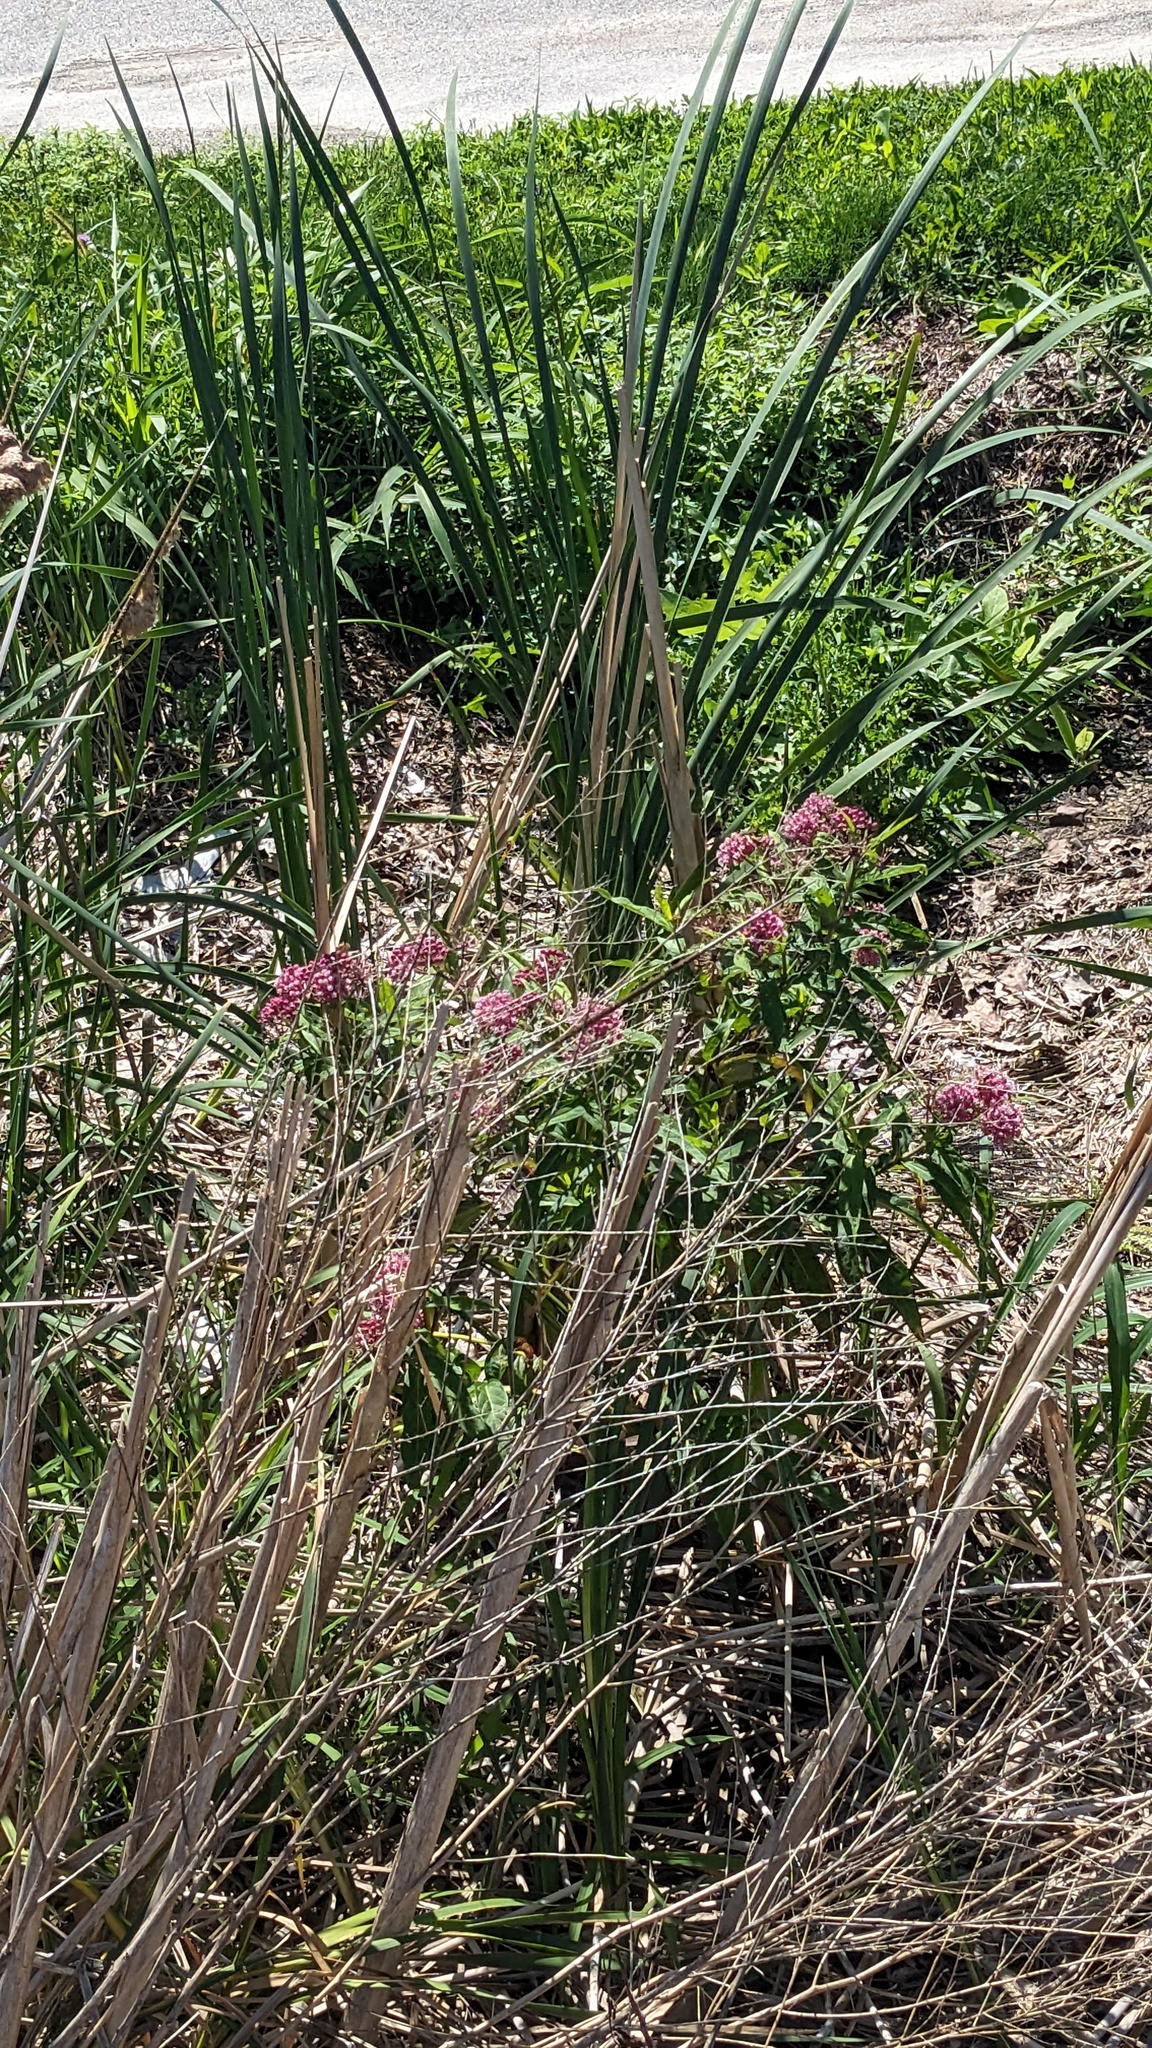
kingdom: Plantae
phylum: Tracheophyta
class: Magnoliopsida
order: Gentianales
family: Apocynaceae
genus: Asclepias
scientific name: Asclepias incarnata
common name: Swamp milkweed
